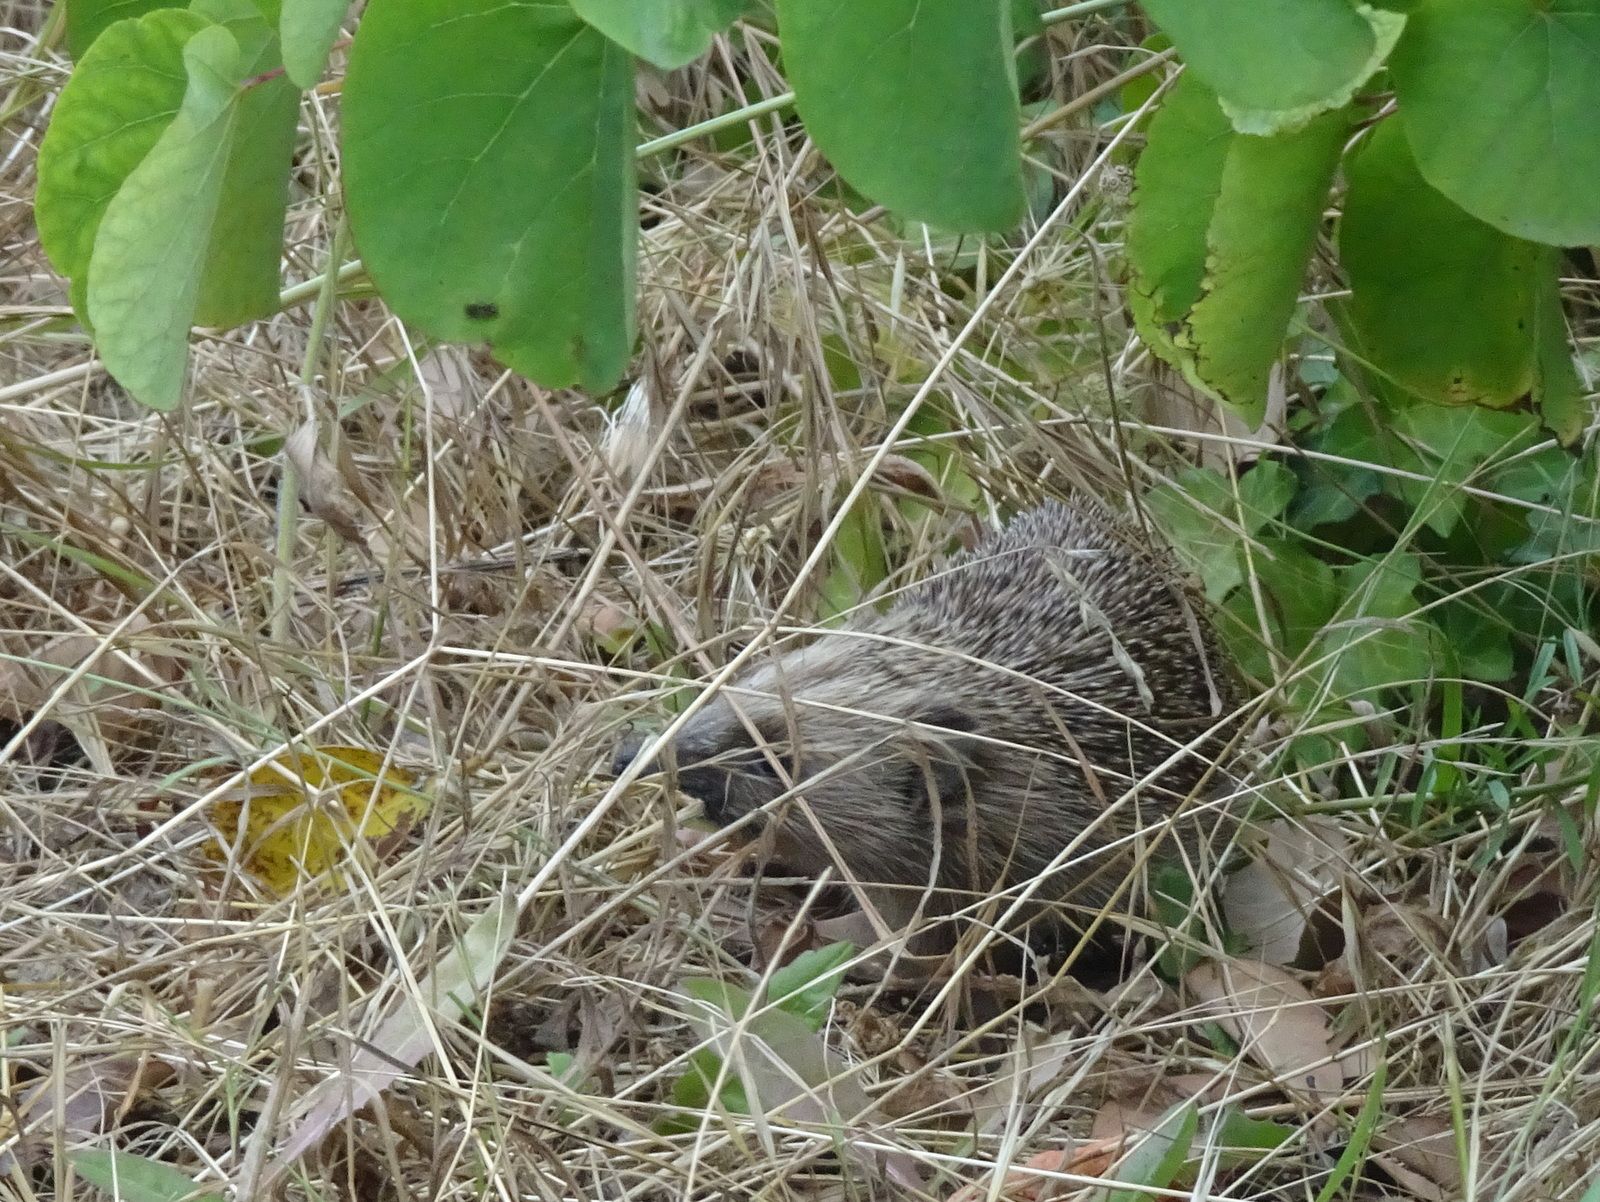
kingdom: Animalia
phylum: Chordata
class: Mammalia
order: Erinaceomorpha
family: Erinaceidae
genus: Erinaceus
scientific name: Erinaceus europaeus
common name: West european hedgehog
